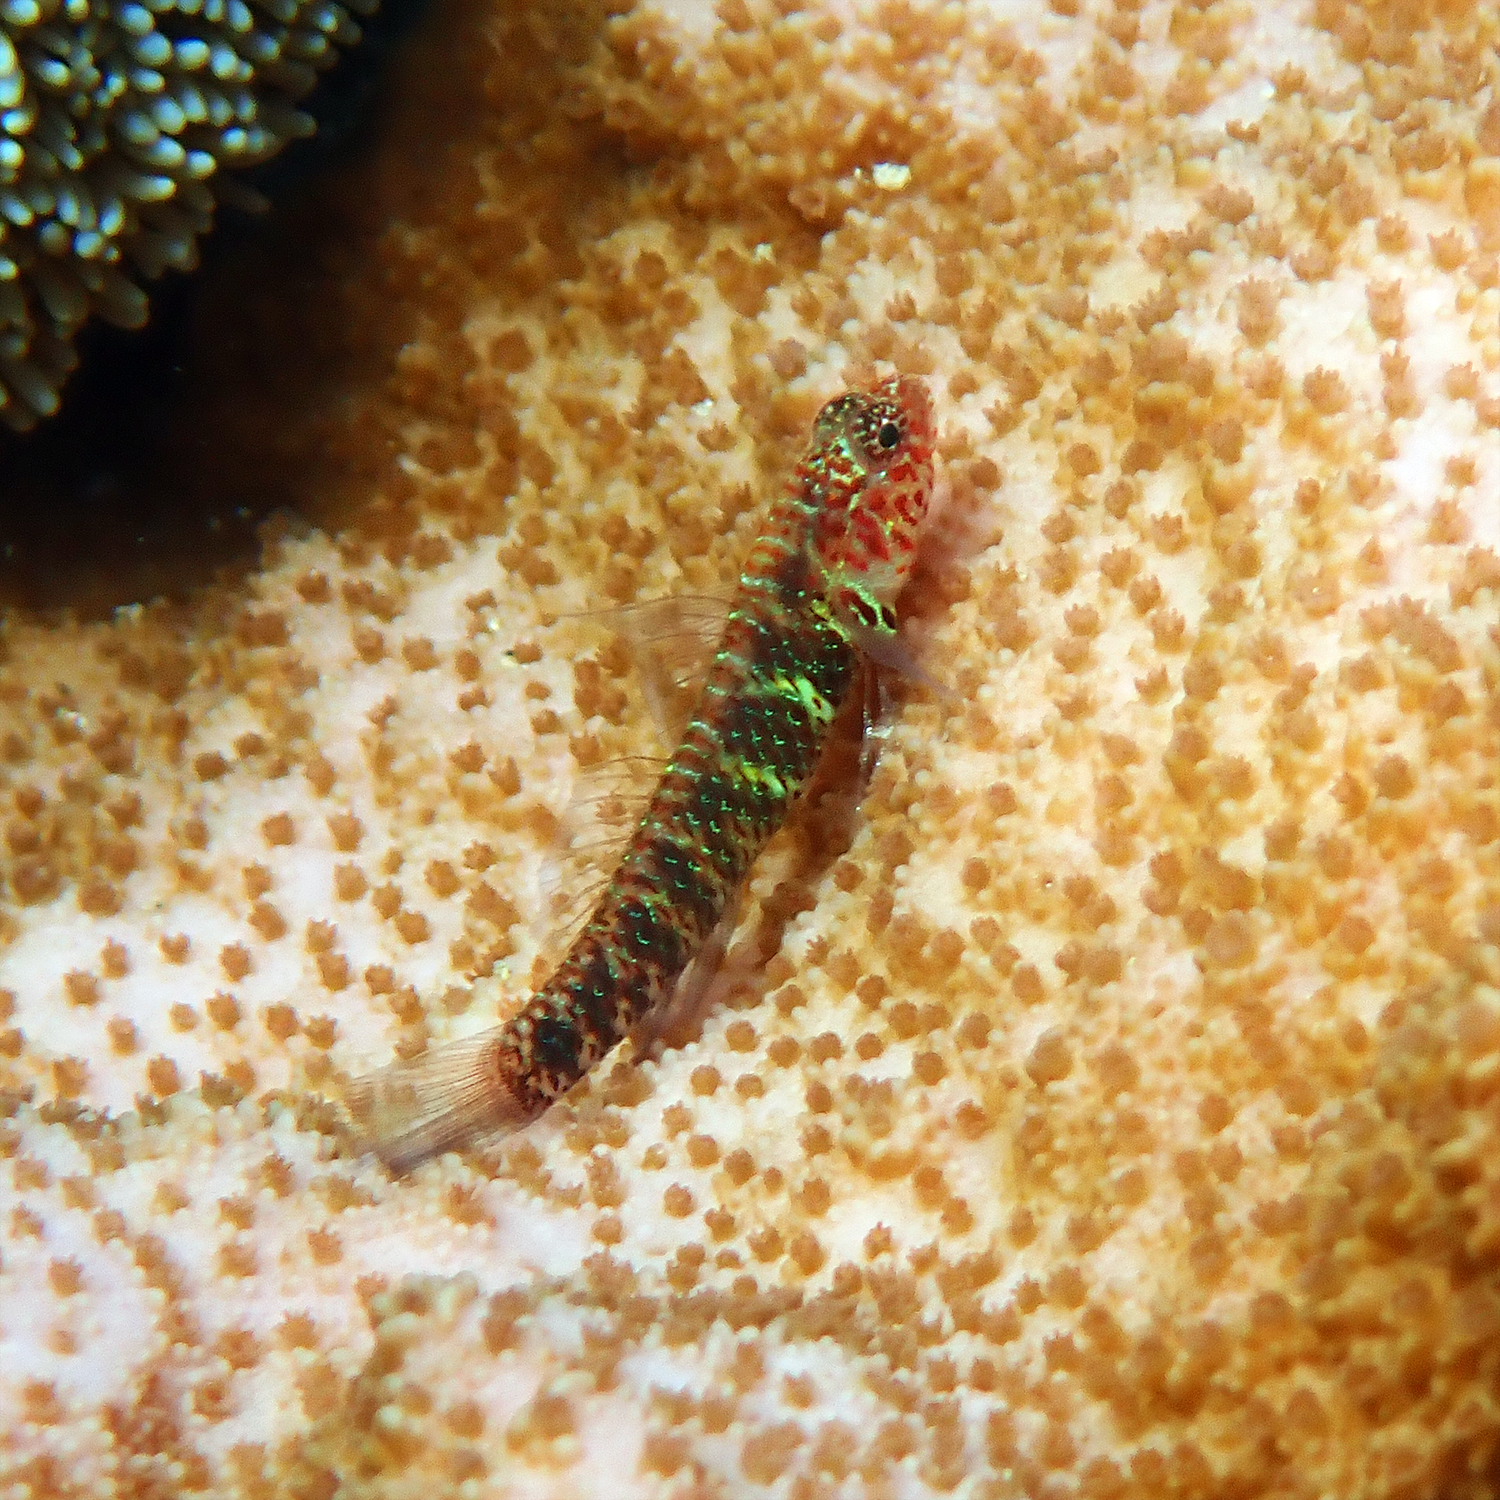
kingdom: Animalia
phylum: Chordata
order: Perciformes
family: Gobiidae
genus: Eviota
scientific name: Eviota hoesei
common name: Doug's eviota
